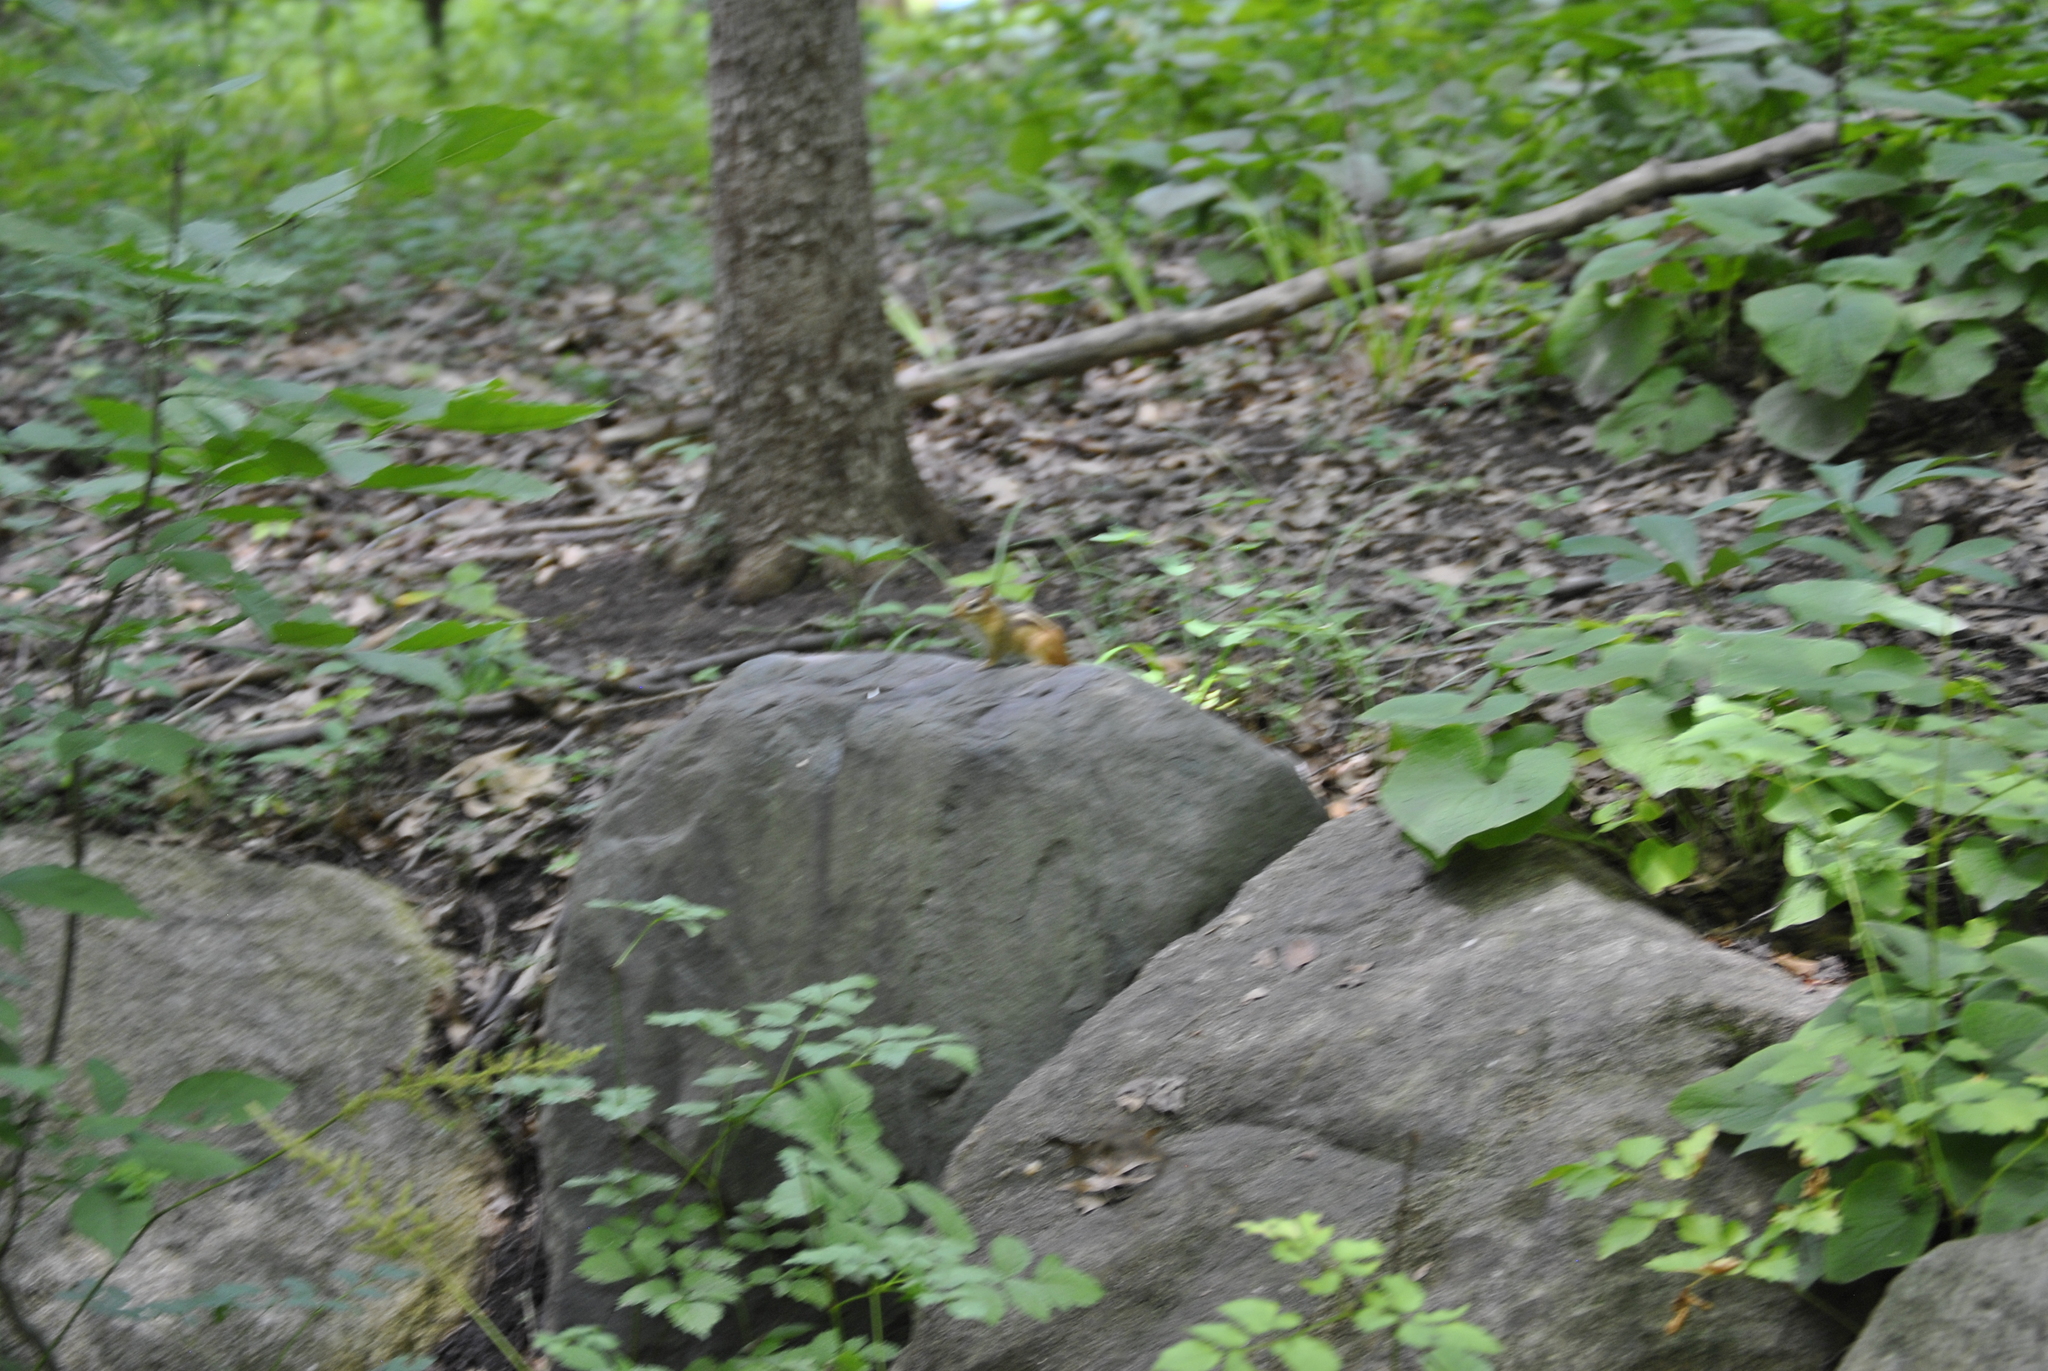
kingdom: Animalia
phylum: Chordata
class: Mammalia
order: Rodentia
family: Sciuridae
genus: Tamias
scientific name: Tamias striatus
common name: Eastern chipmunk
